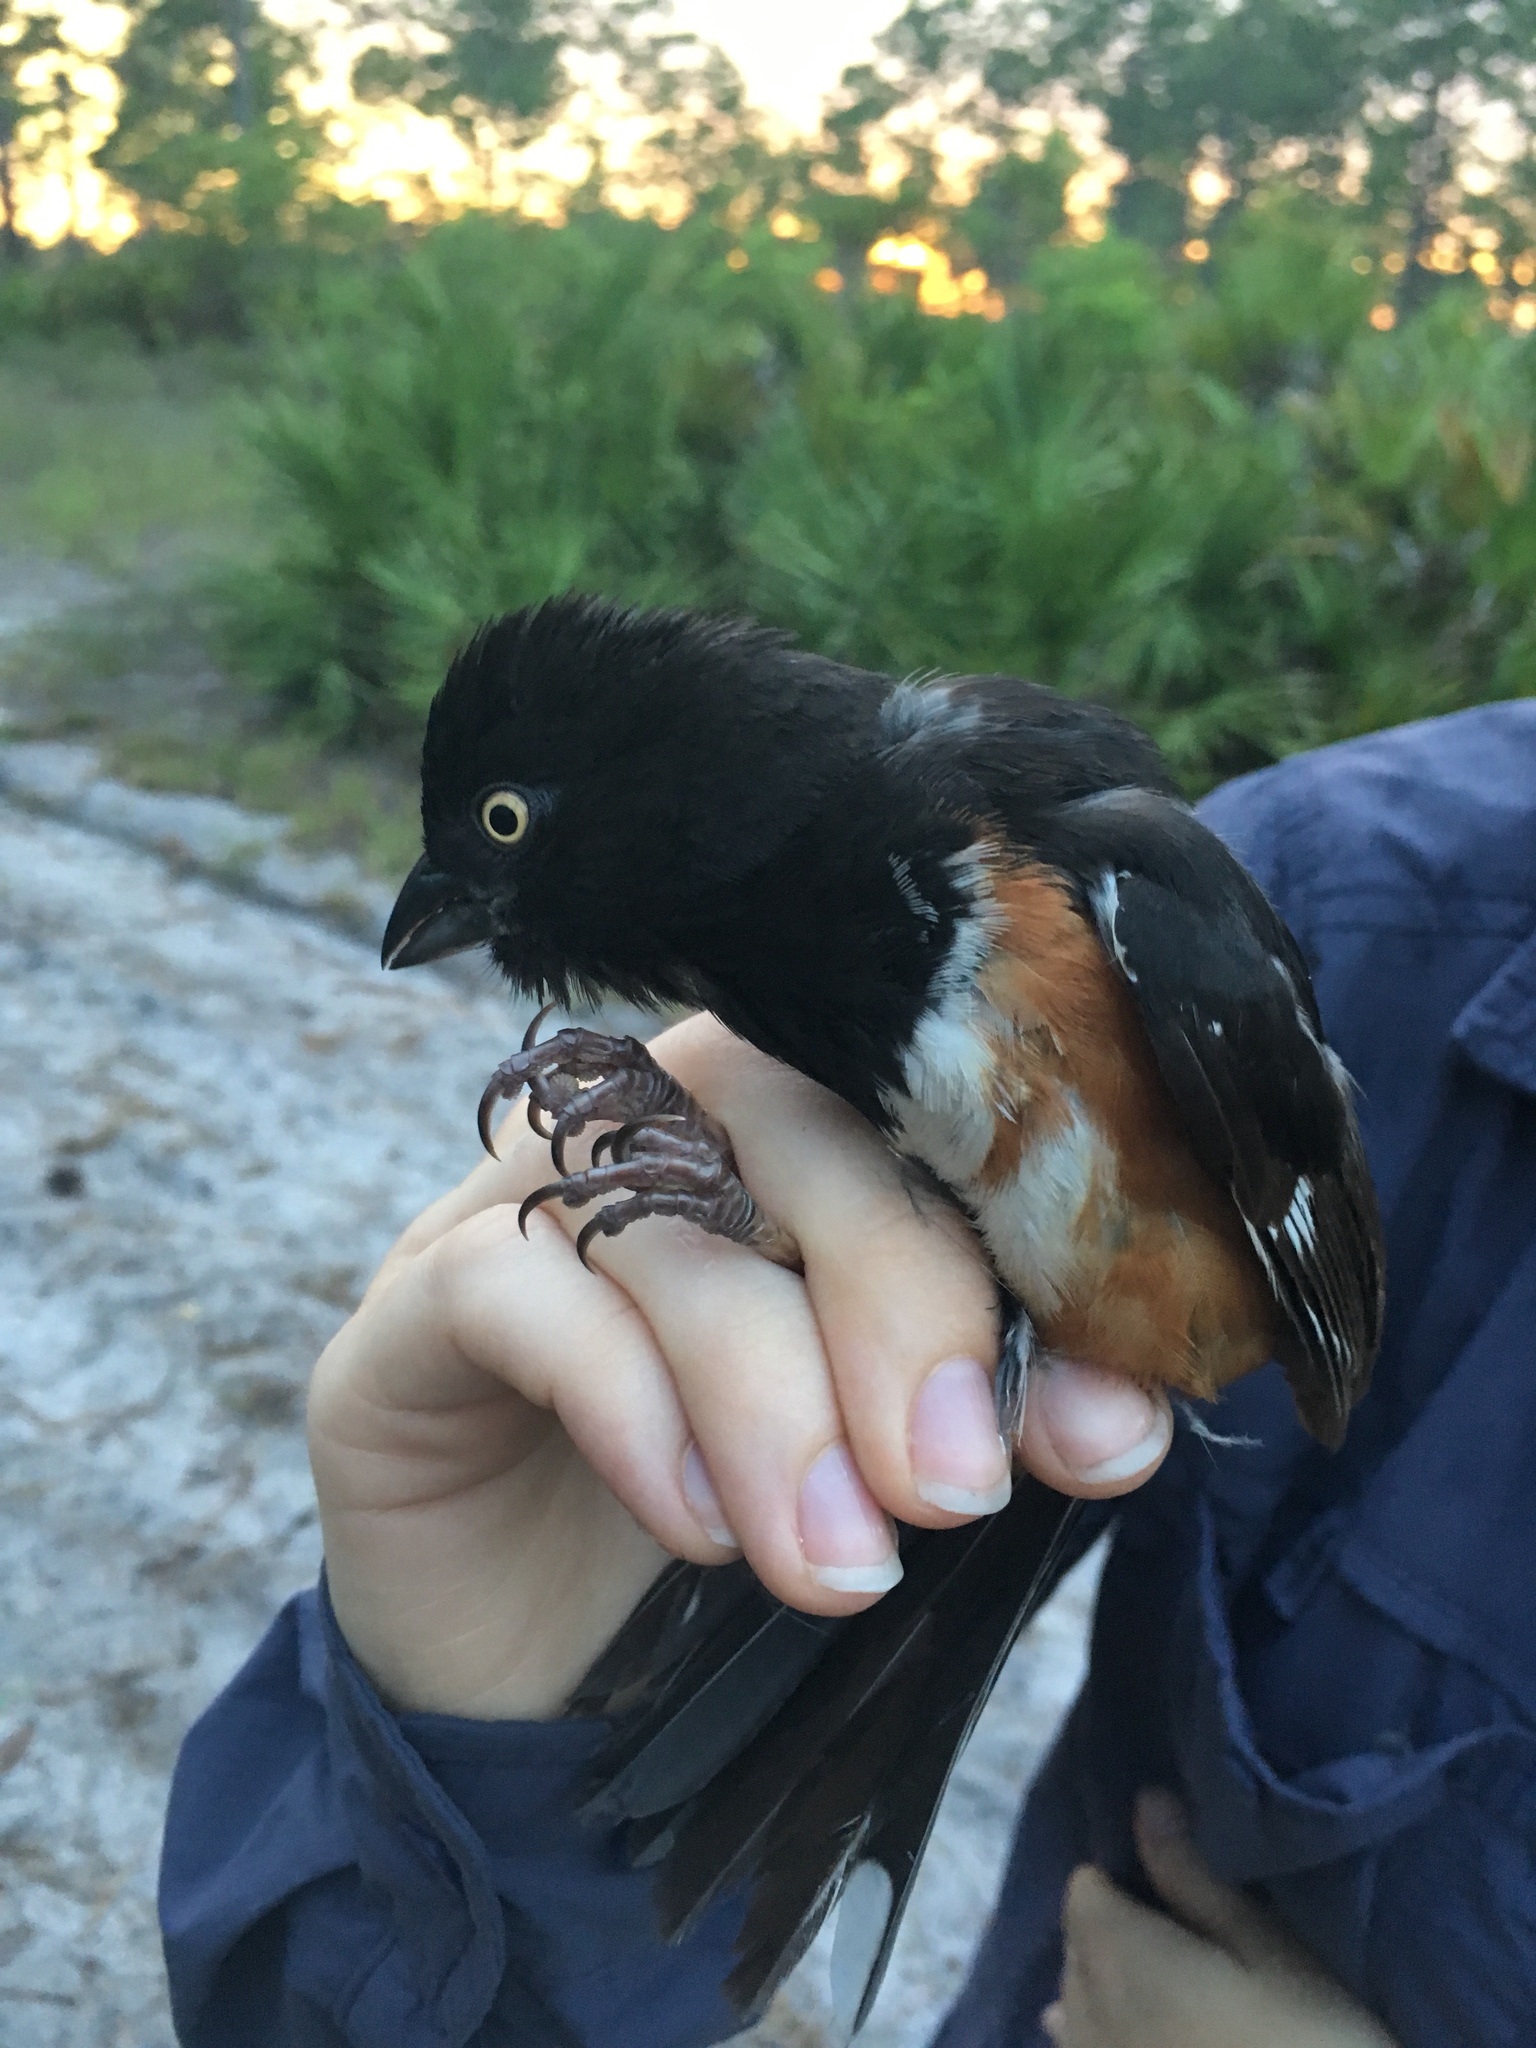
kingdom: Animalia
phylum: Chordata
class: Aves
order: Passeriformes
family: Passerellidae
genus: Pipilo
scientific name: Pipilo erythrophthalmus
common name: Eastern towhee
